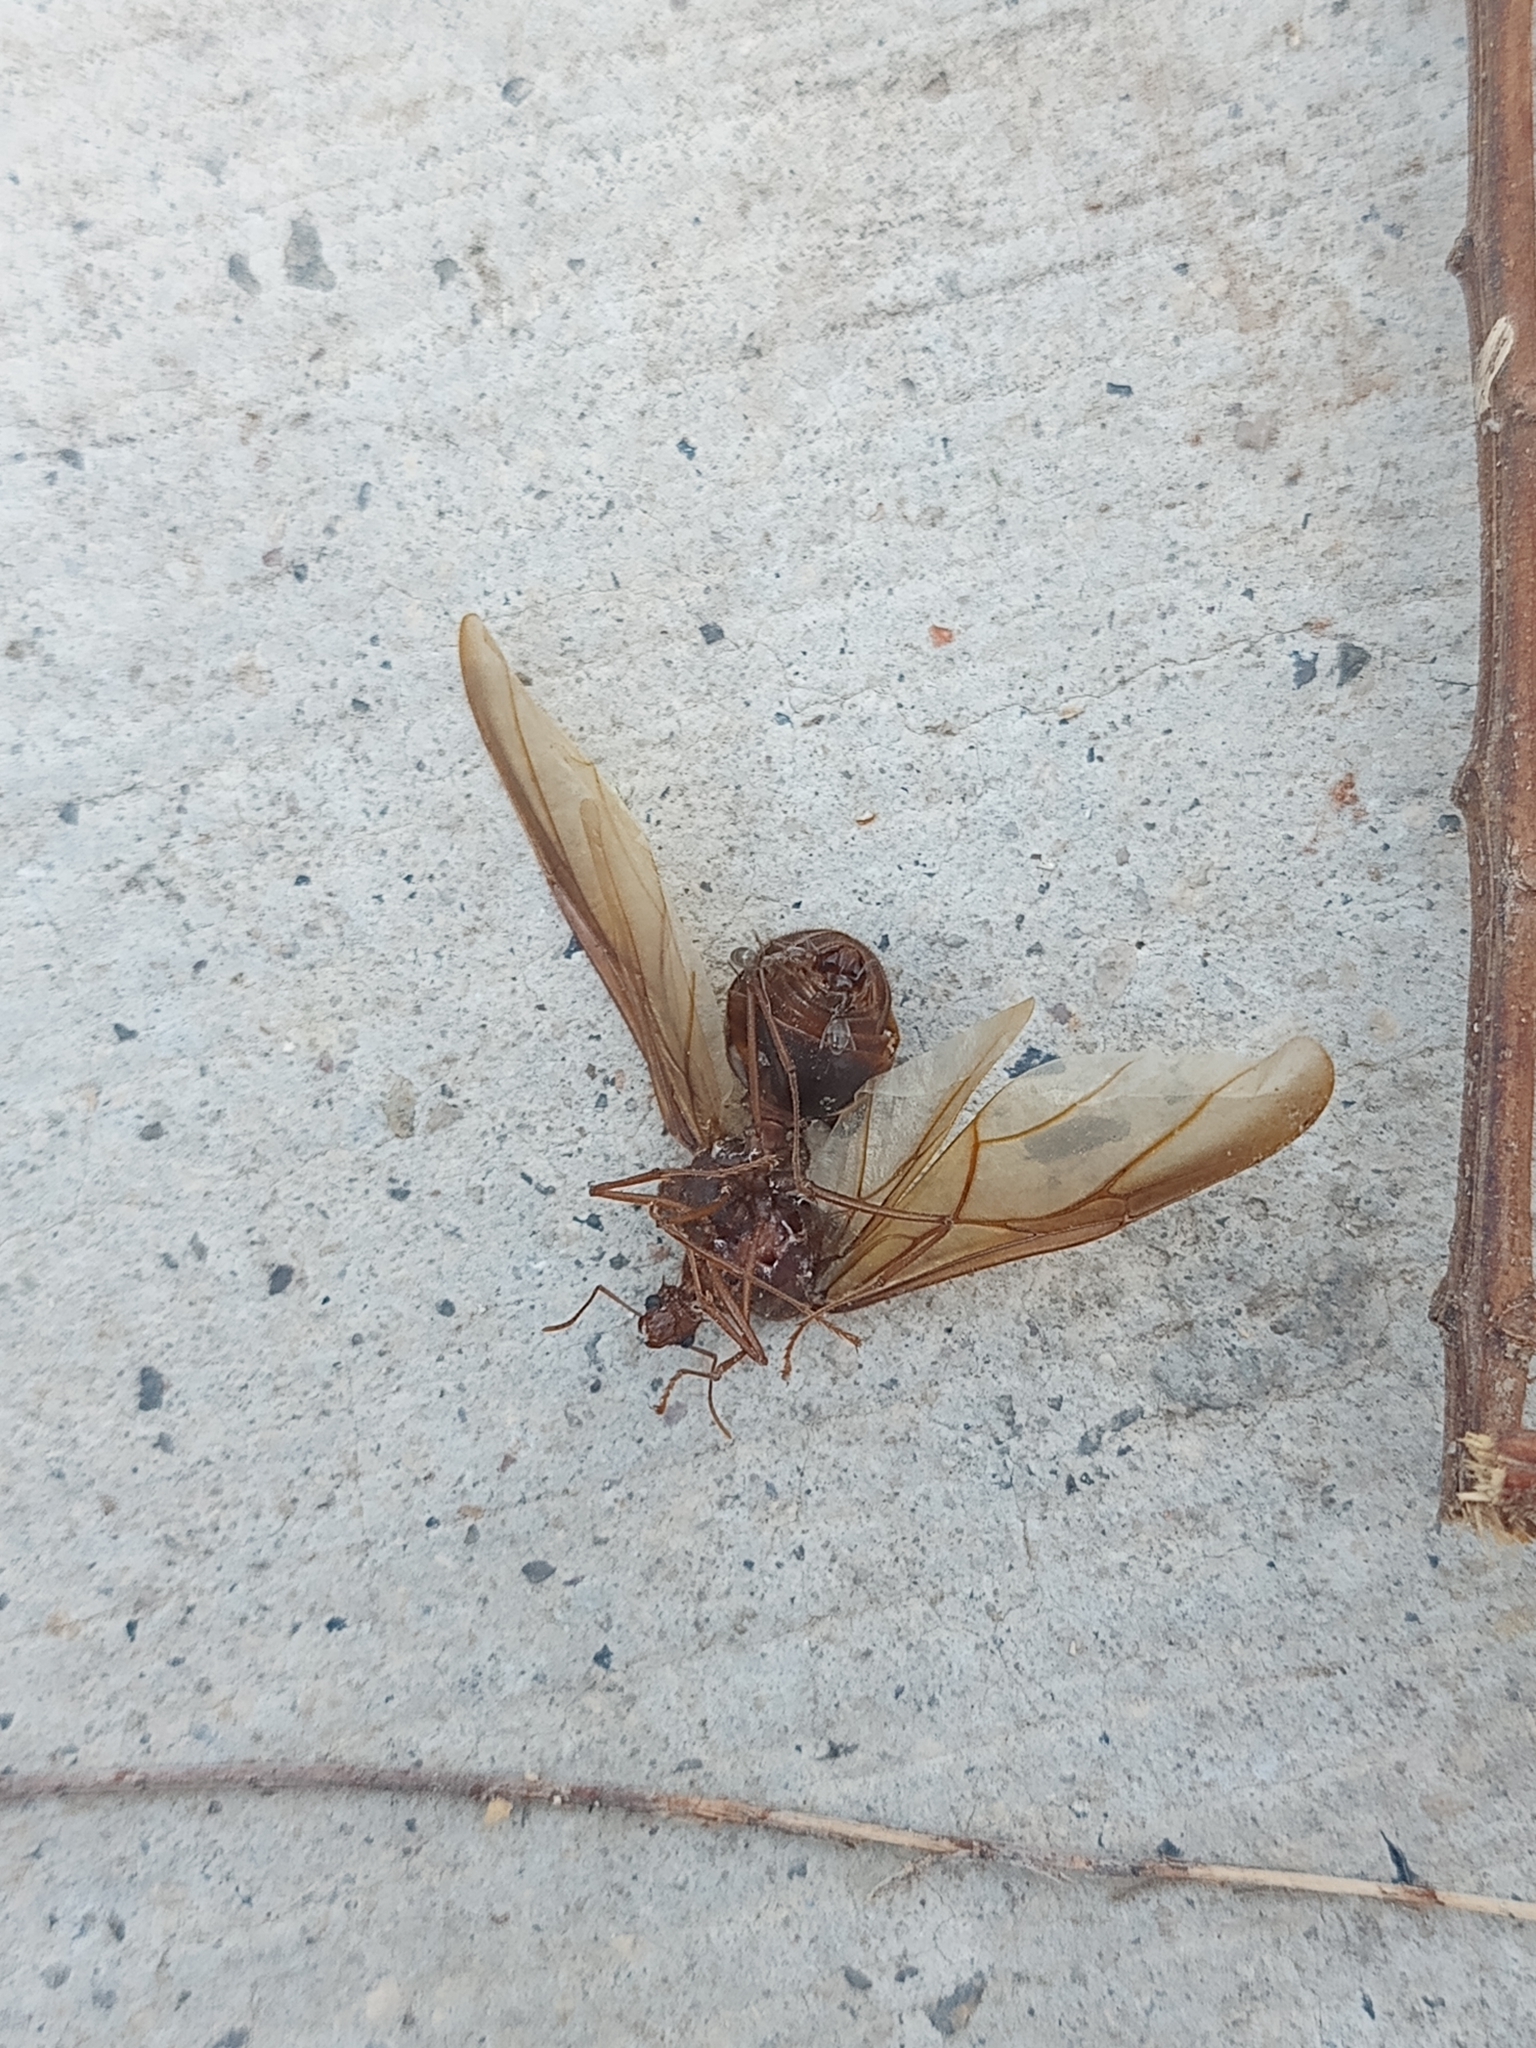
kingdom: Animalia
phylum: Arthropoda
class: Insecta
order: Hymenoptera
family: Formicidae
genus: Atta
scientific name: Atta mexicana
